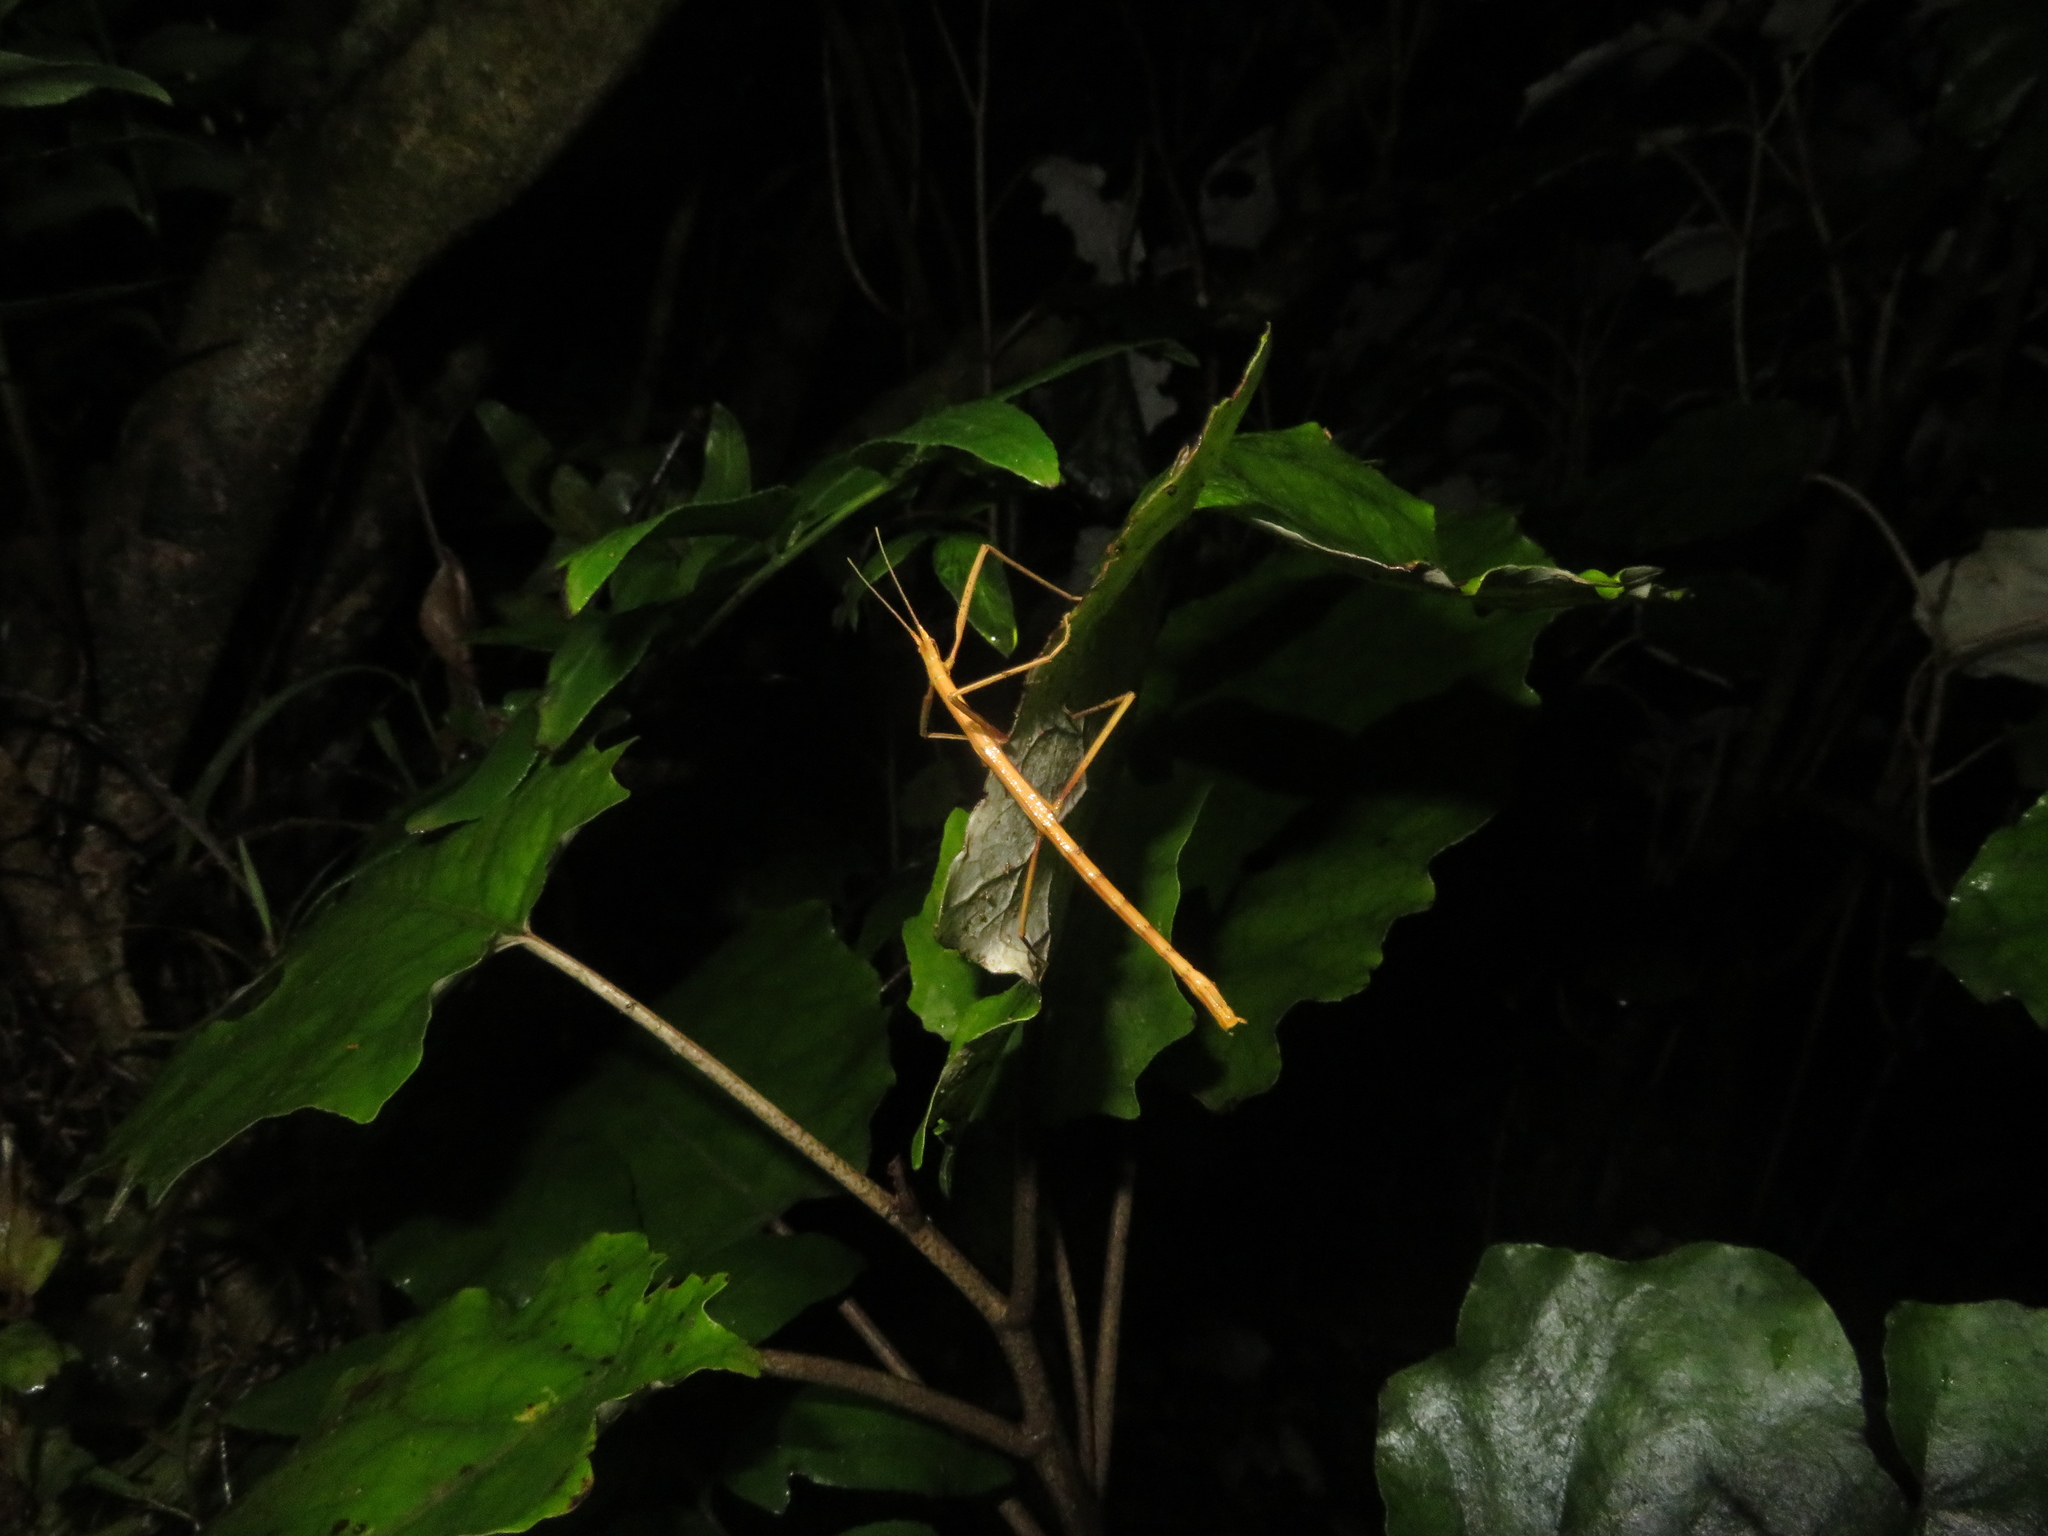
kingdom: Animalia
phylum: Arthropoda
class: Insecta
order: Phasmida
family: Phasmatidae
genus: Tectarchus
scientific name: Tectarchus huttoni
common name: The common ridge-backed stick insect
